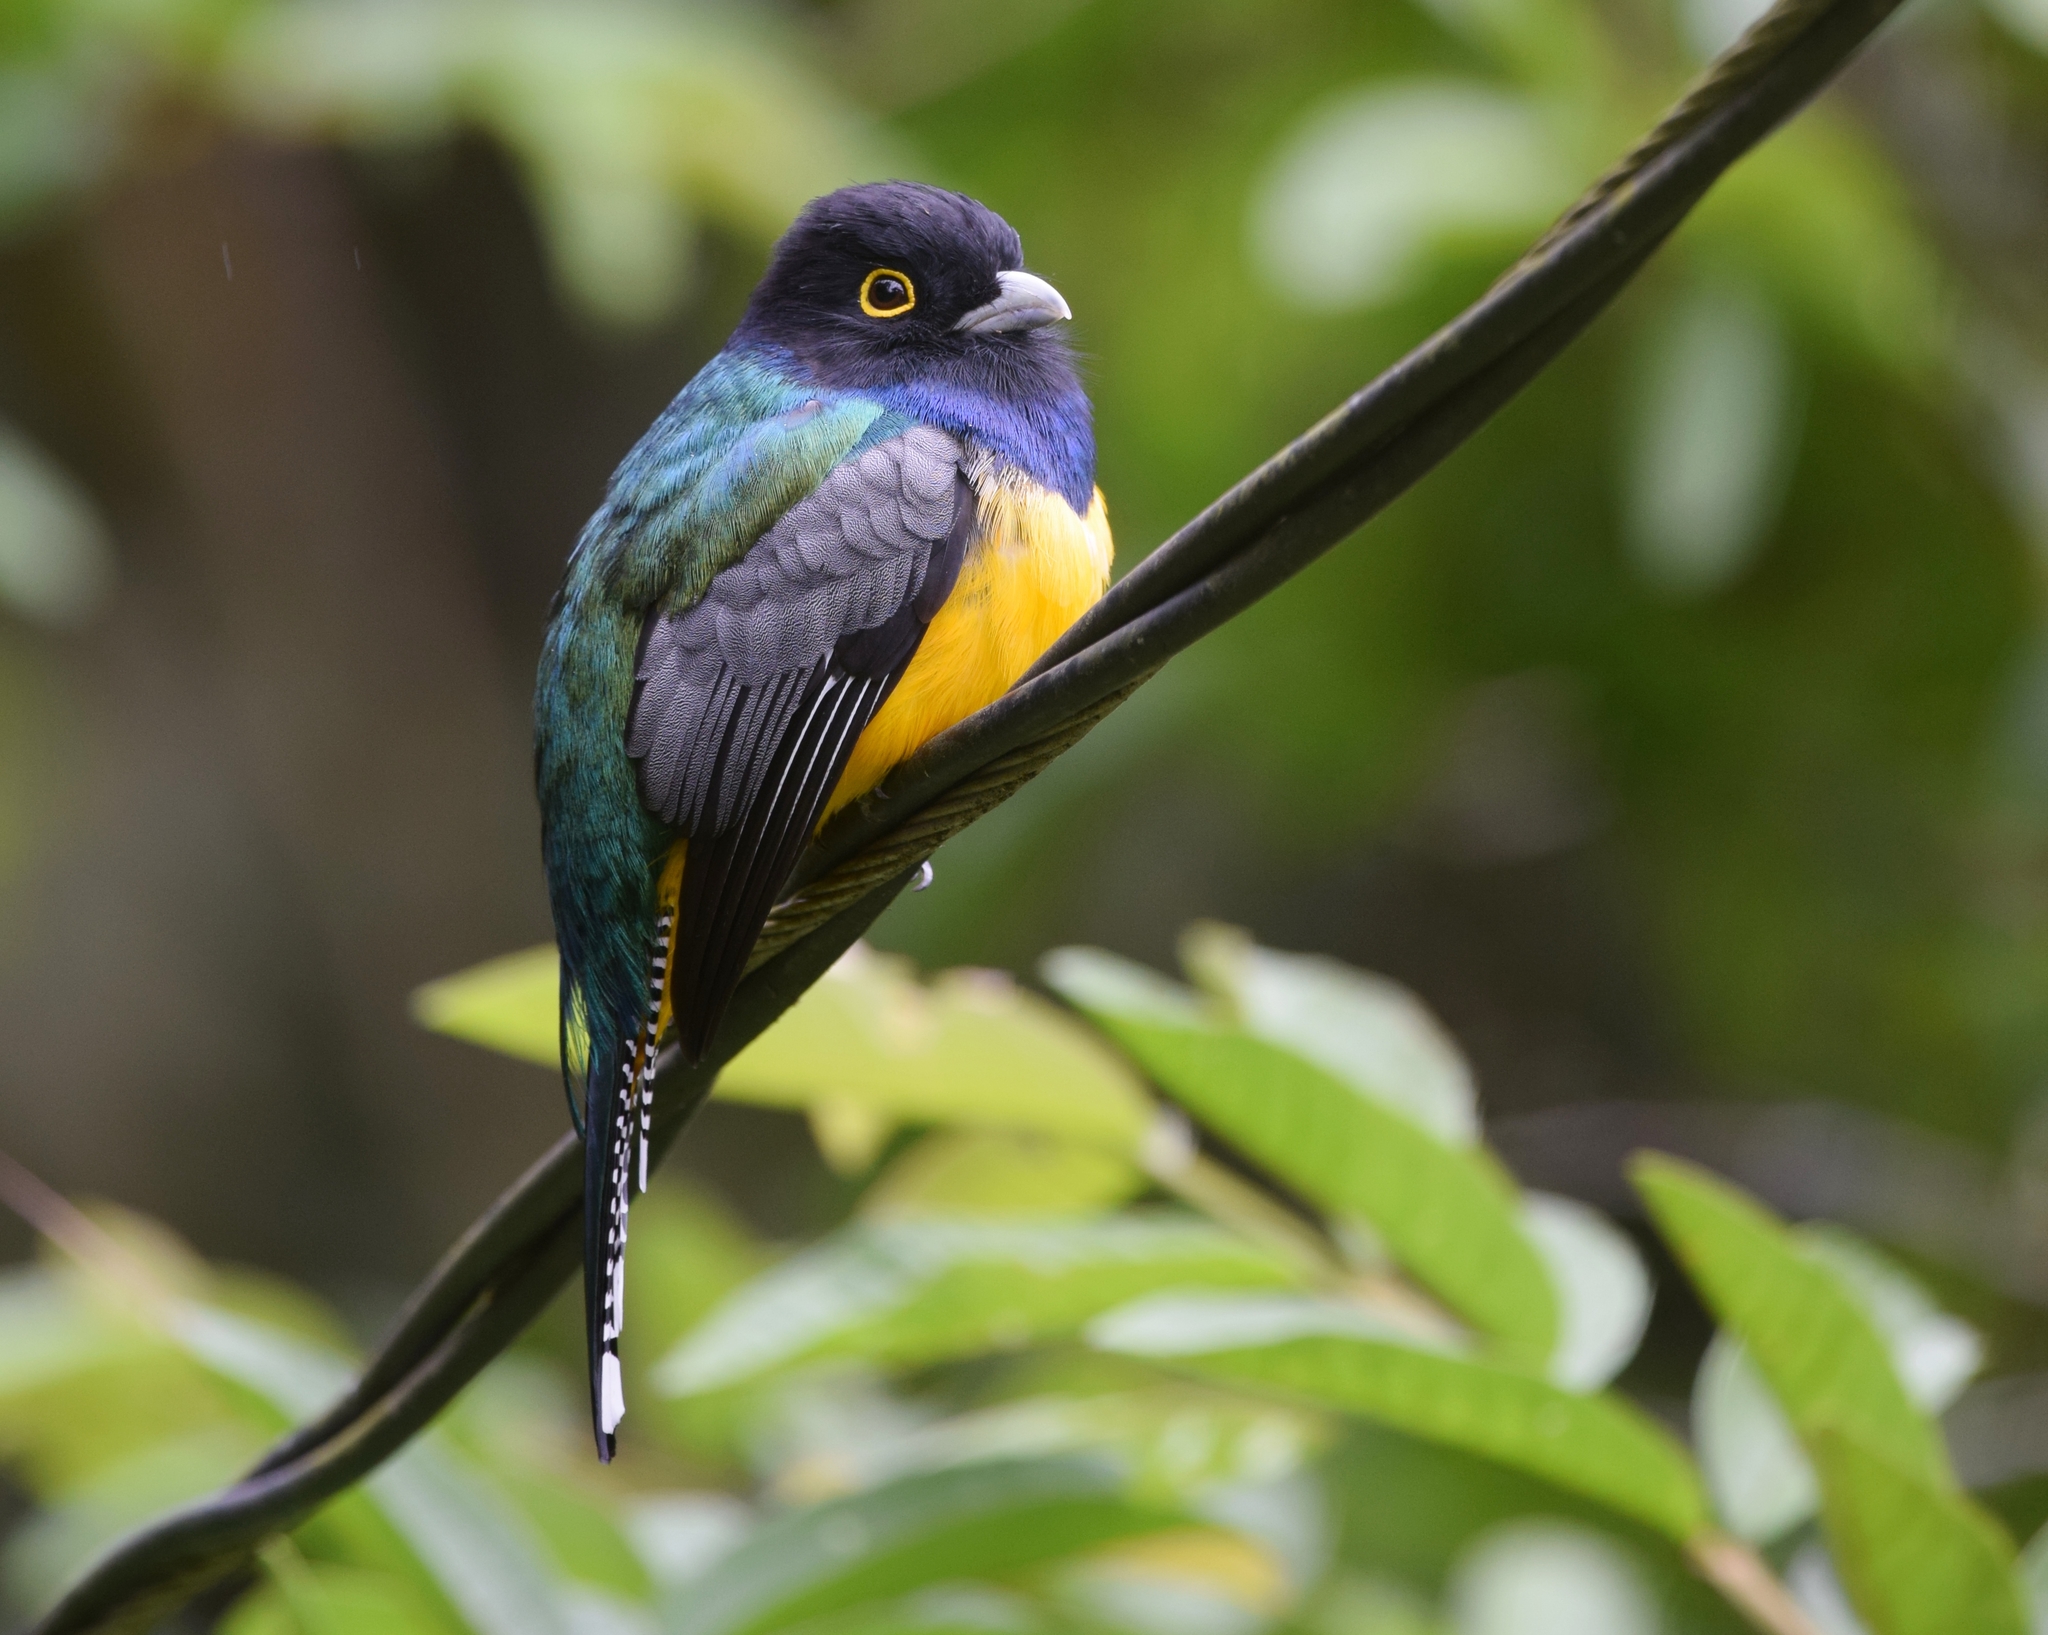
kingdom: Animalia
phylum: Chordata
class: Aves
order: Trogoniformes
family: Trogonidae
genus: Trogon
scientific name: Trogon caligatus
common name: Gartered trogon
